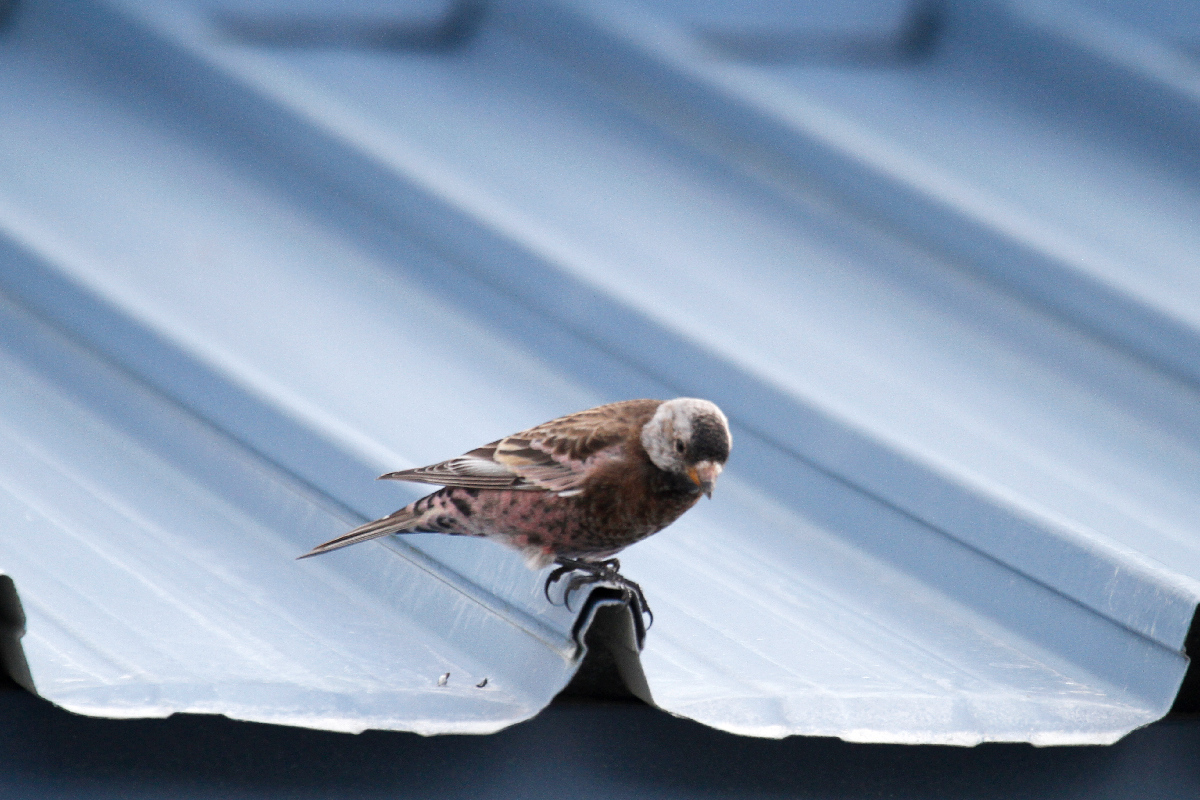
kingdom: Animalia
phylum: Chordata
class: Aves
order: Passeriformes
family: Fringillidae
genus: Leucosticte
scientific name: Leucosticte tephrocotis
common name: Gray-crowned rosy-finch
